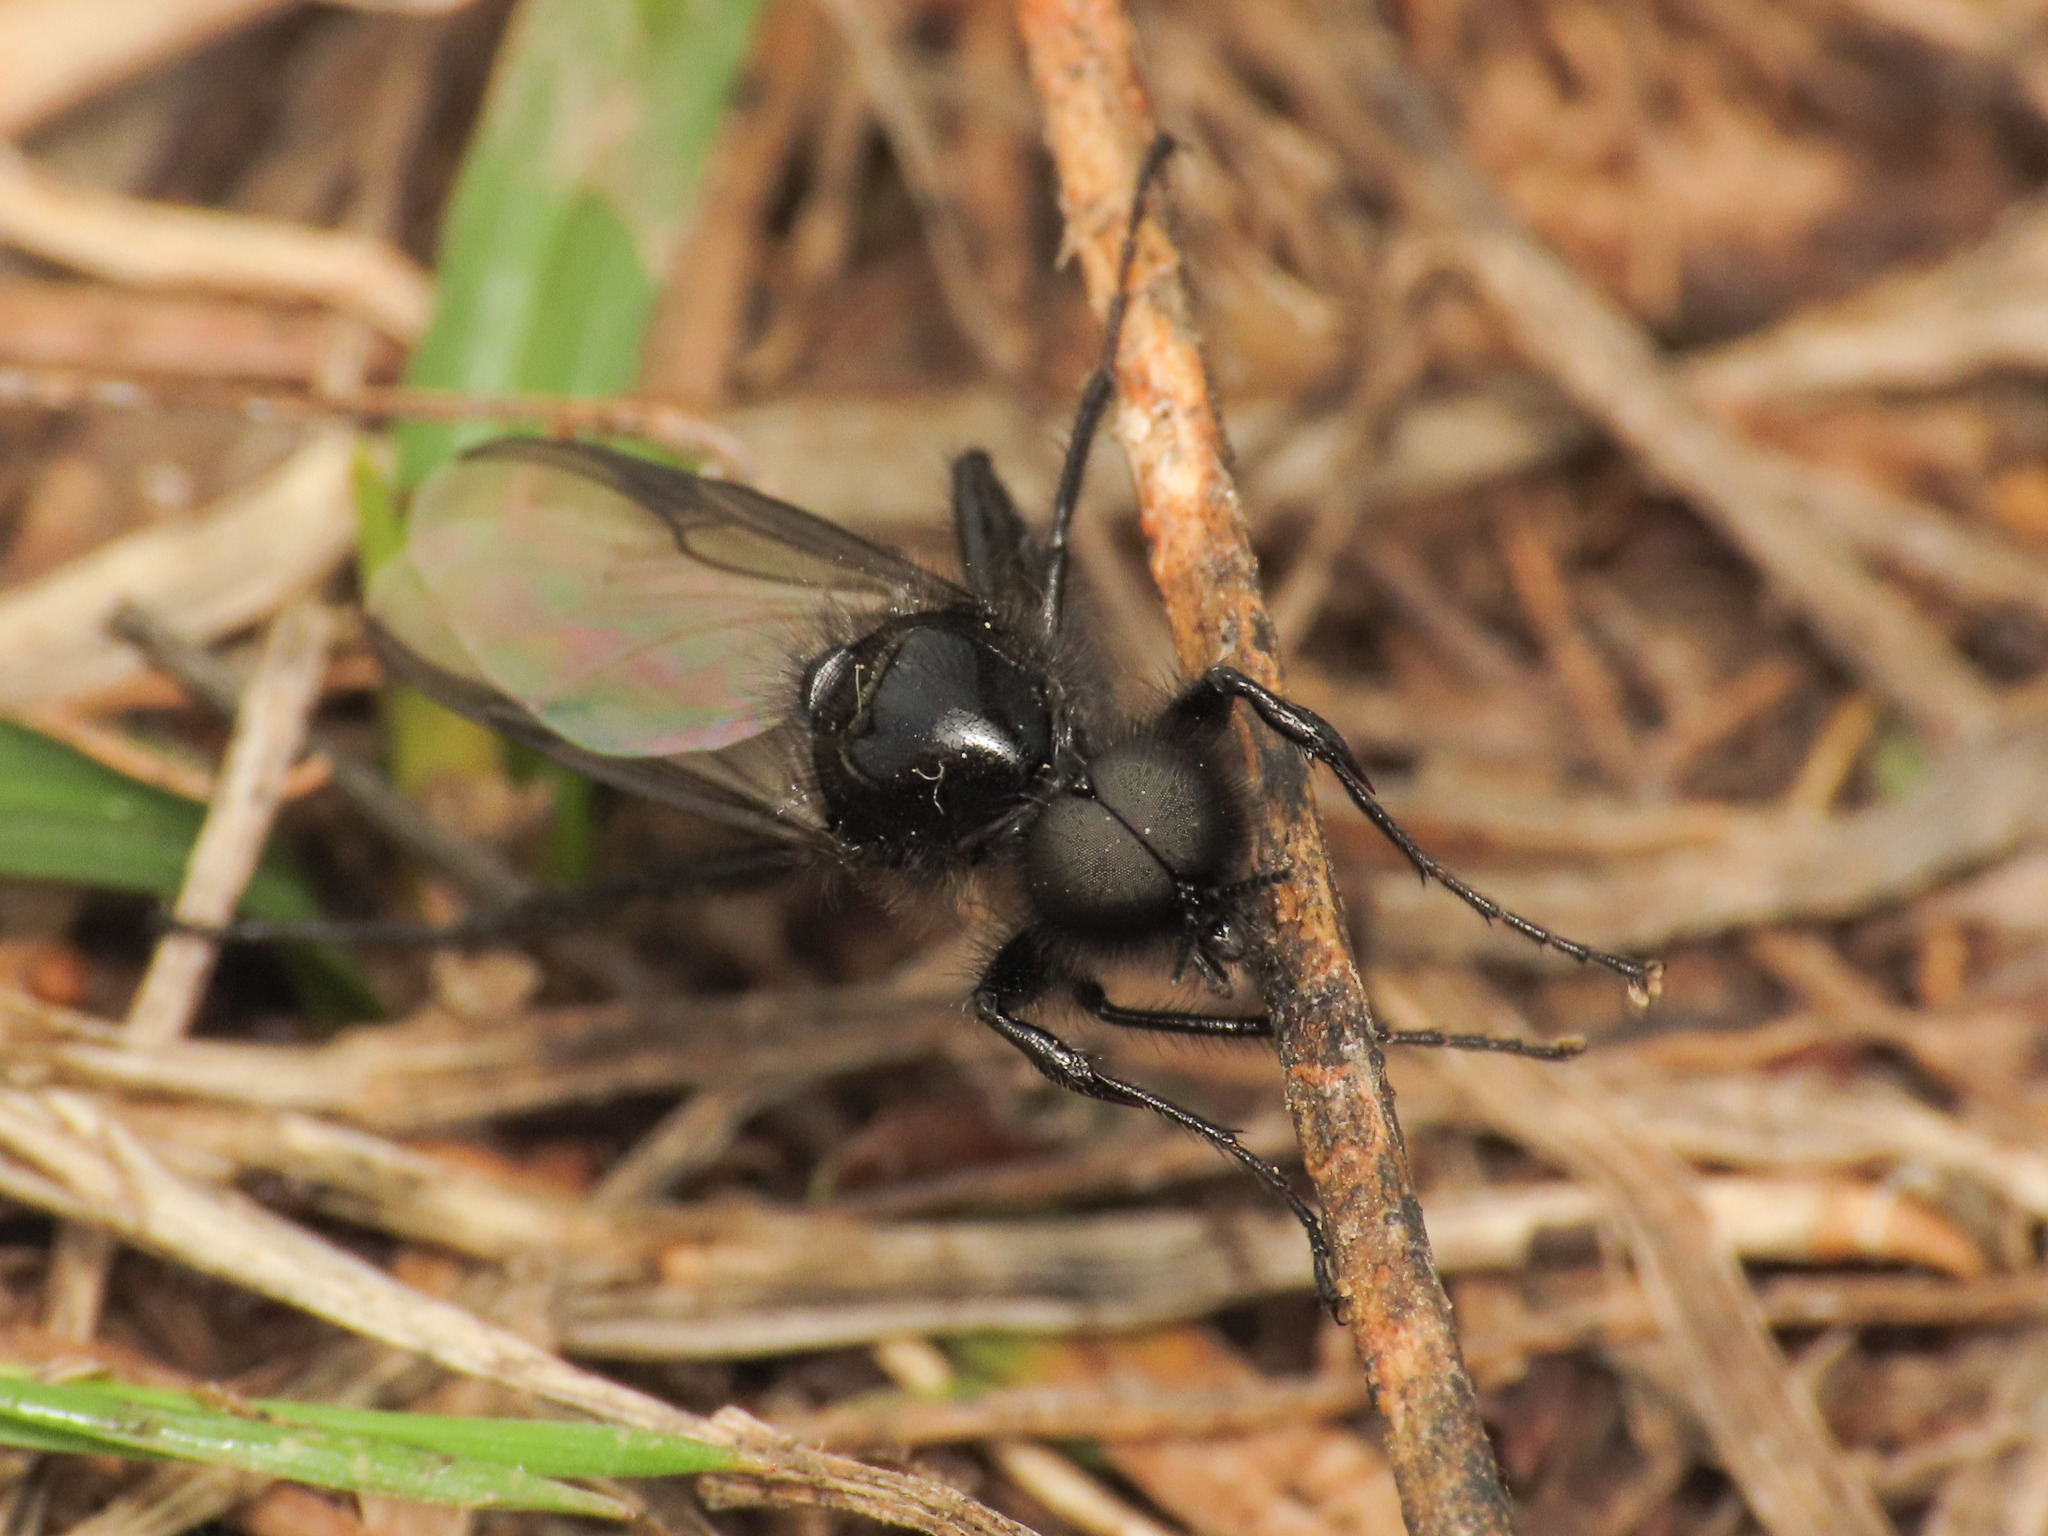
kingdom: Animalia
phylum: Arthropoda
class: Insecta
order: Diptera
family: Bibionidae
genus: Bibio
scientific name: Bibio marci
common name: St marks fly
